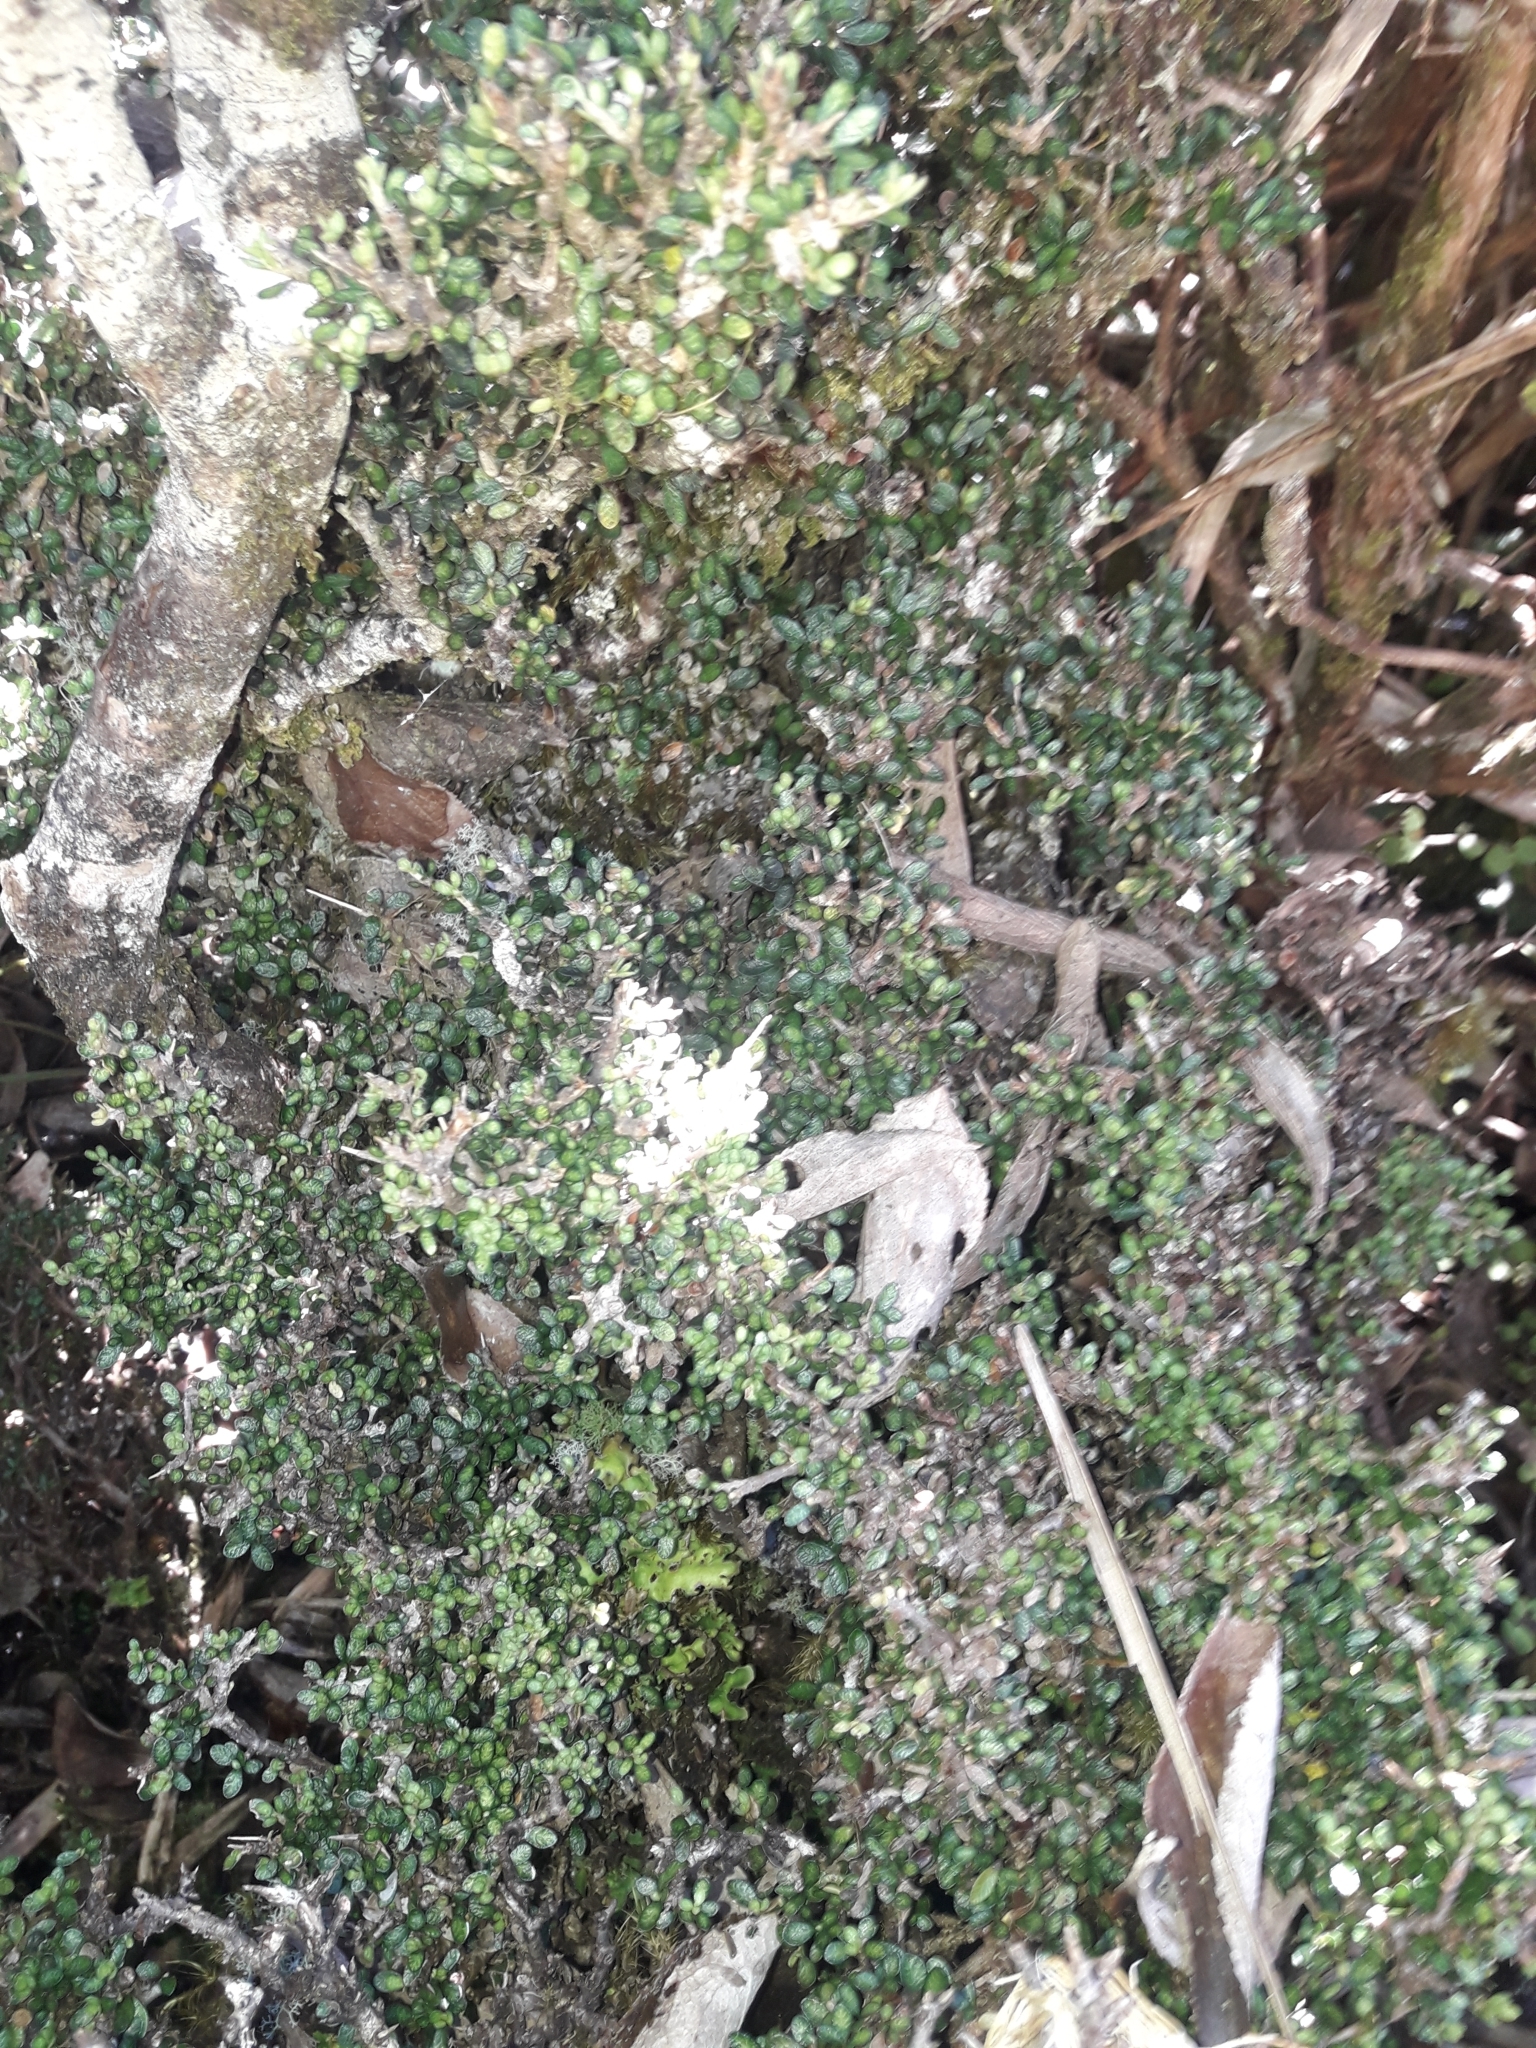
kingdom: Plantae
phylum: Tracheophyta
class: Magnoliopsida
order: Apiales
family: Pittosporaceae
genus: Pittosporum
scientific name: Pittosporum rigidum
